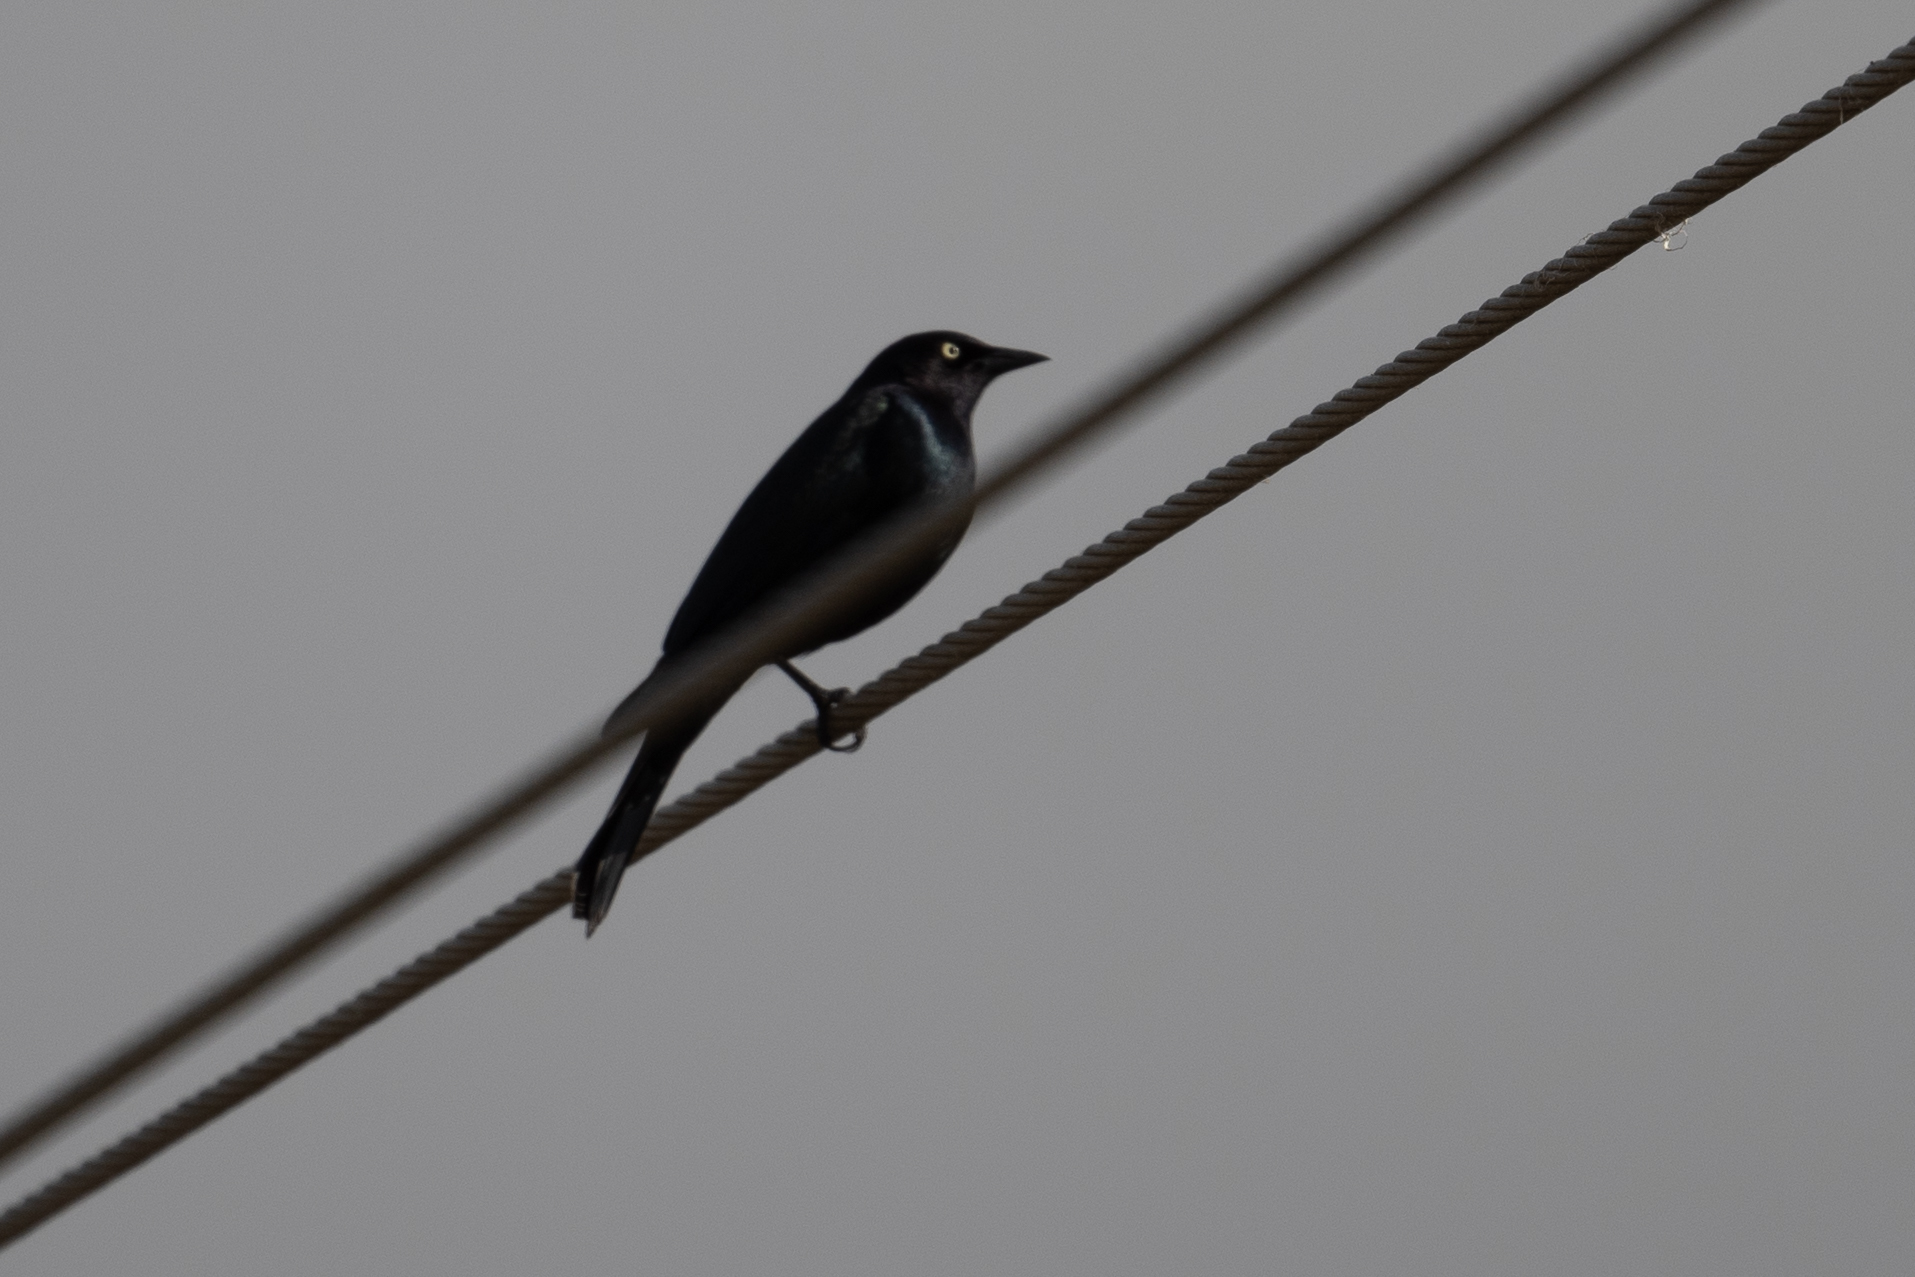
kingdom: Animalia
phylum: Chordata
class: Aves
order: Passeriformes
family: Icteridae
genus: Euphagus
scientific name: Euphagus cyanocephalus
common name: Brewer's blackbird
